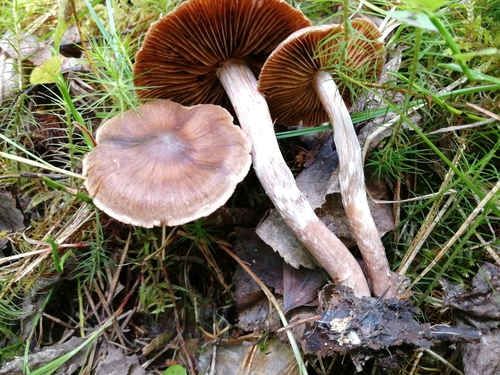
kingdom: Fungi
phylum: Basidiomycota
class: Agaricomycetes
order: Agaricales
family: Cortinariaceae
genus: Cortinarius
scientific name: Cortinarius
